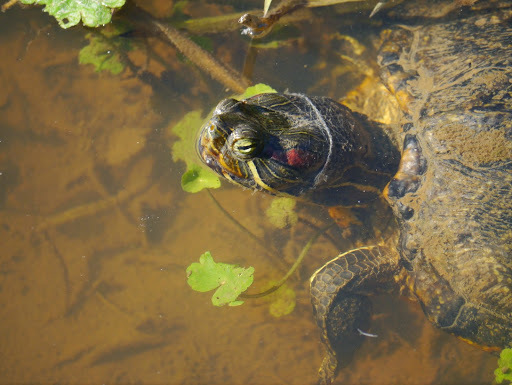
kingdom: Animalia
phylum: Chordata
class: Testudines
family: Emydidae
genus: Trachemys
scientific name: Trachemys scripta
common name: Slider
